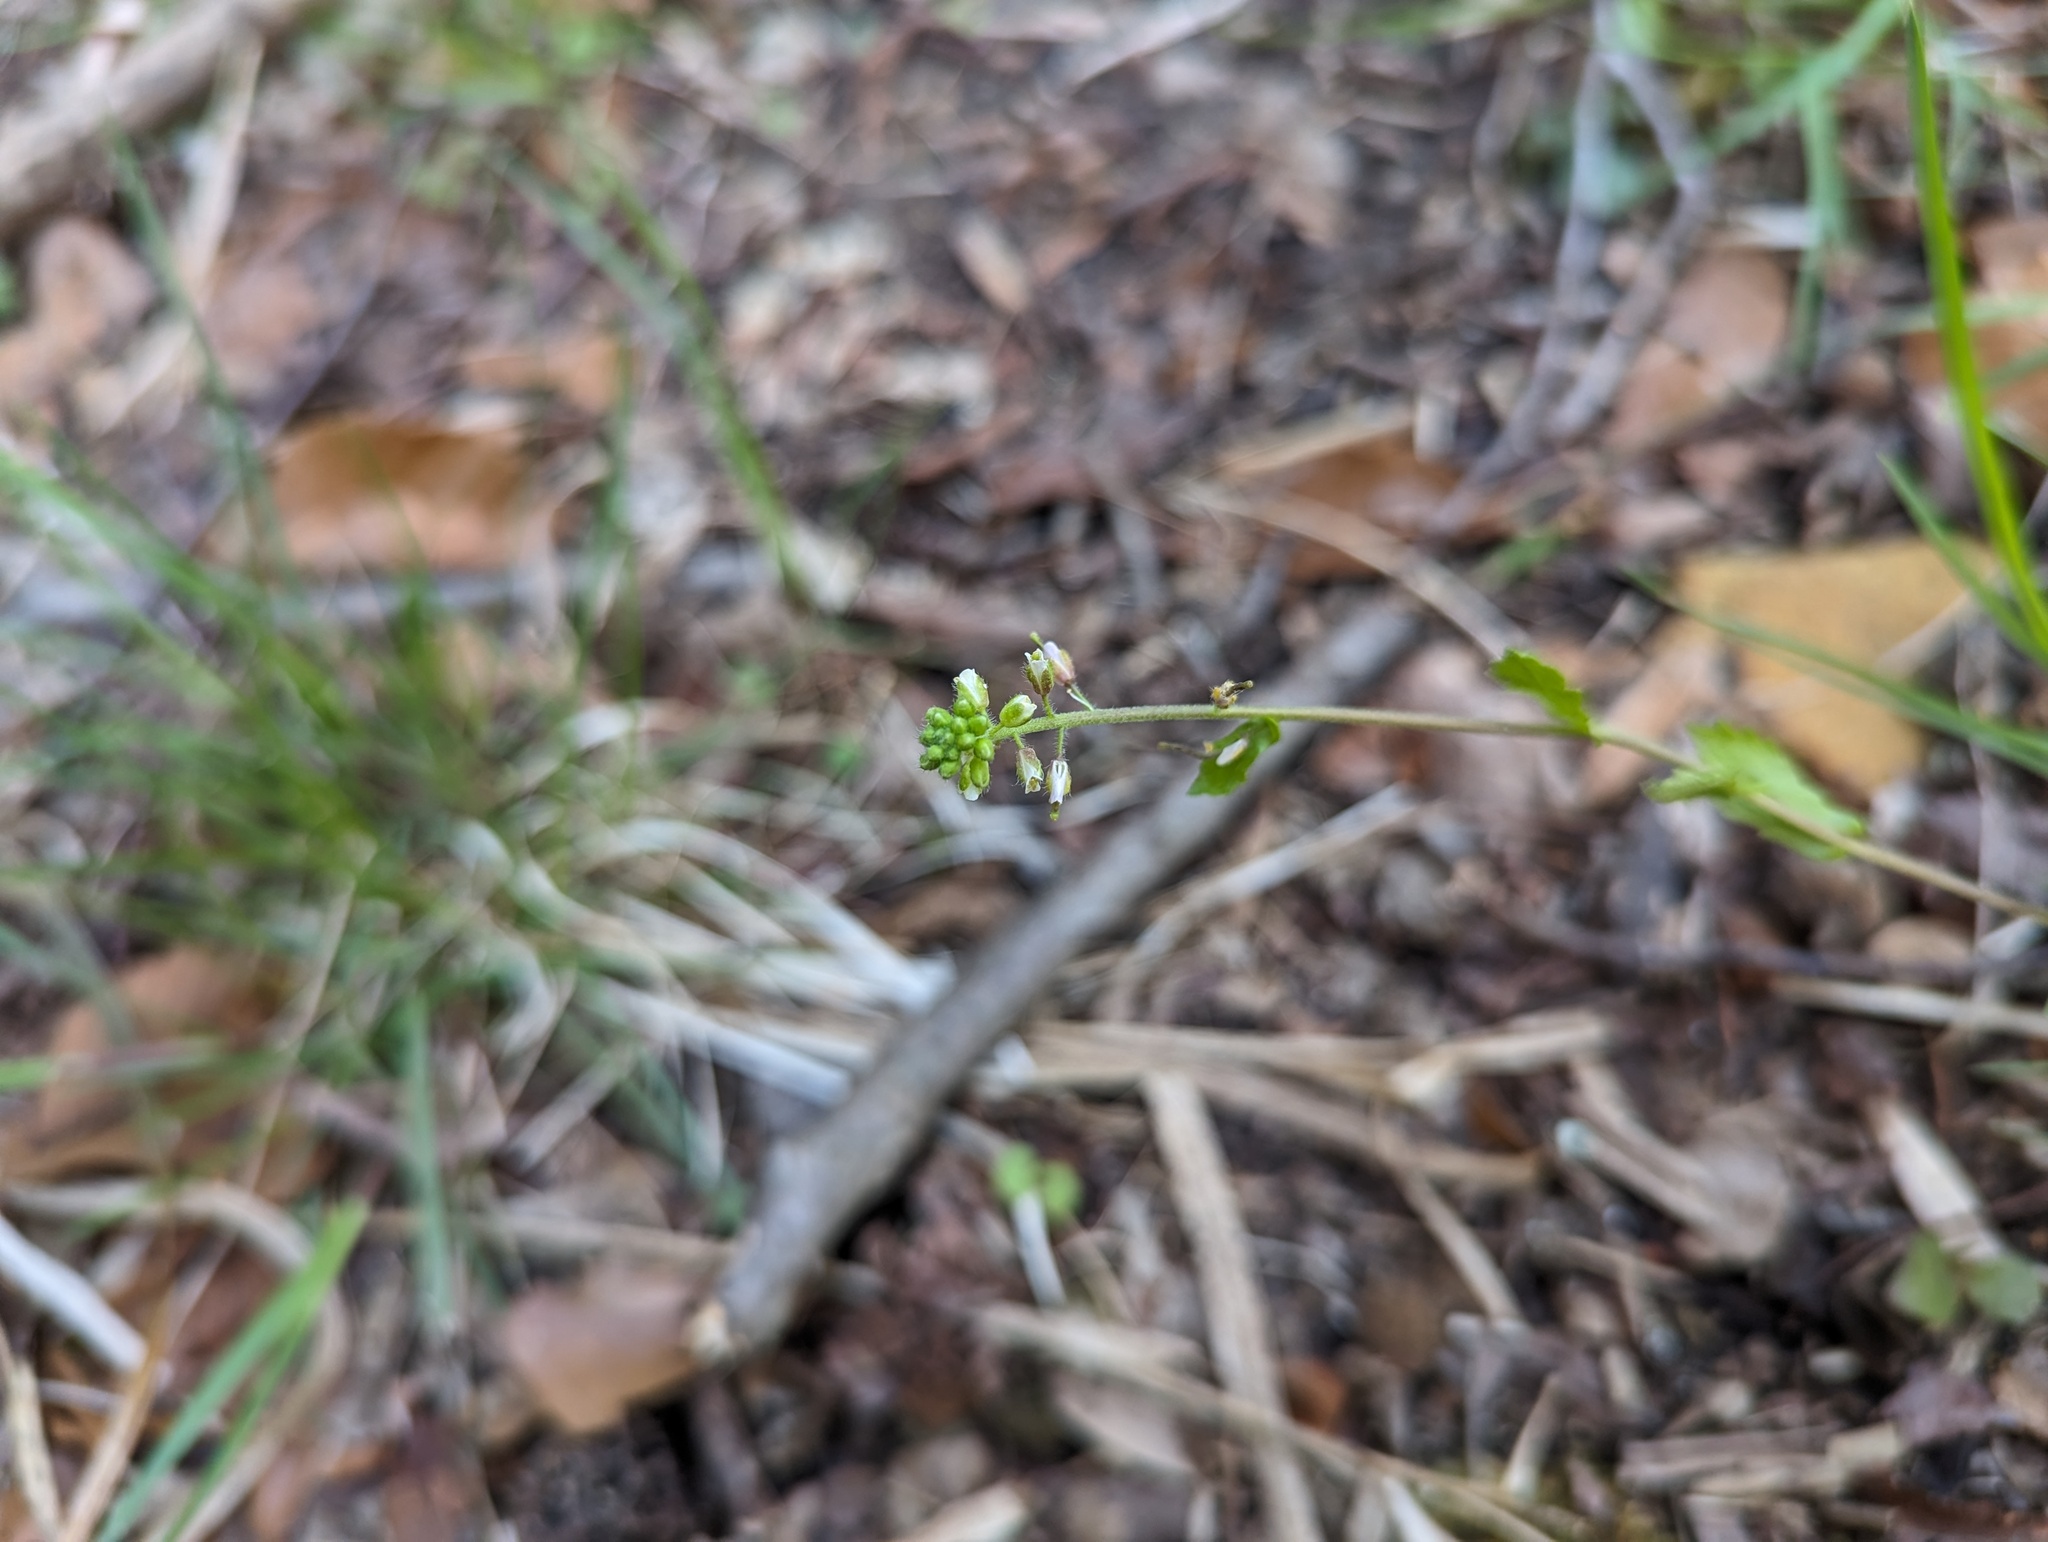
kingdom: Plantae
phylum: Tracheophyta
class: Magnoliopsida
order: Brassicales
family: Brassicaceae
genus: Borodinia
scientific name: Borodinia dentata
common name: Short's rockcress
